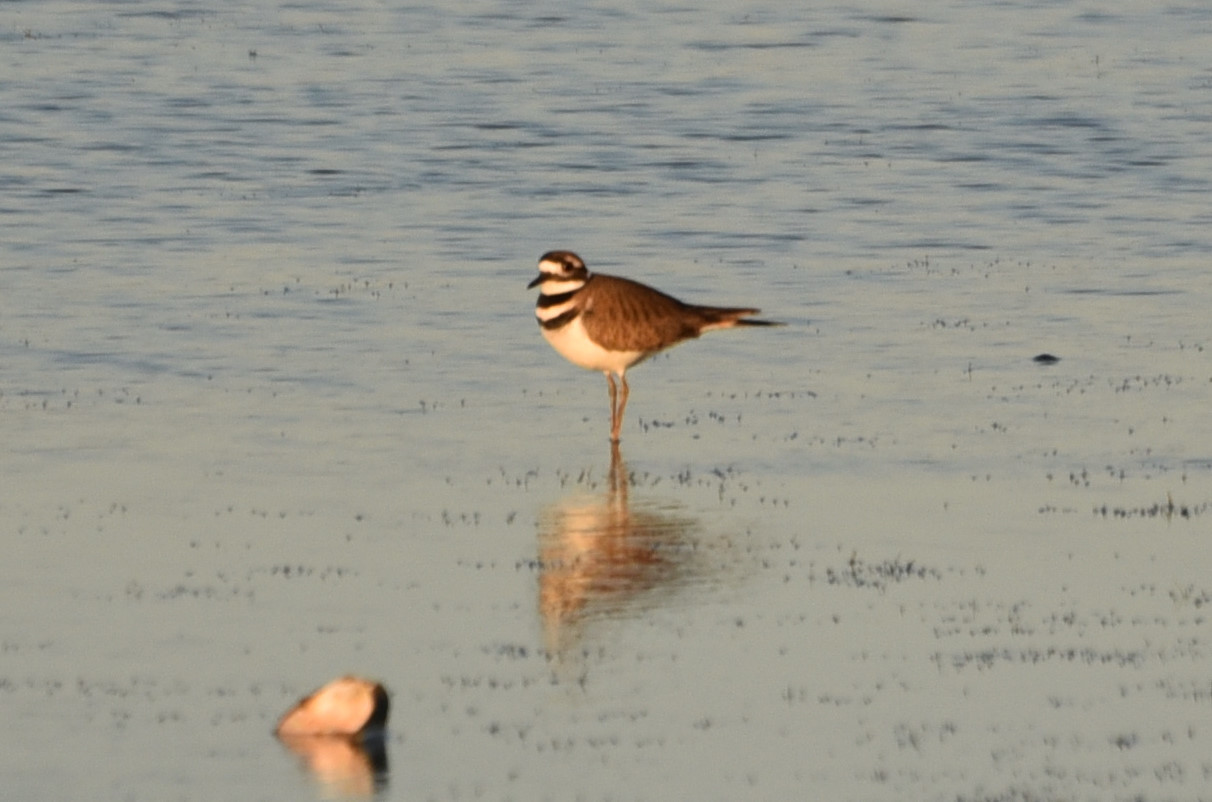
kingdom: Animalia
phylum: Chordata
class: Aves
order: Charadriiformes
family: Charadriidae
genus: Charadrius
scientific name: Charadrius vociferus
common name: Killdeer
